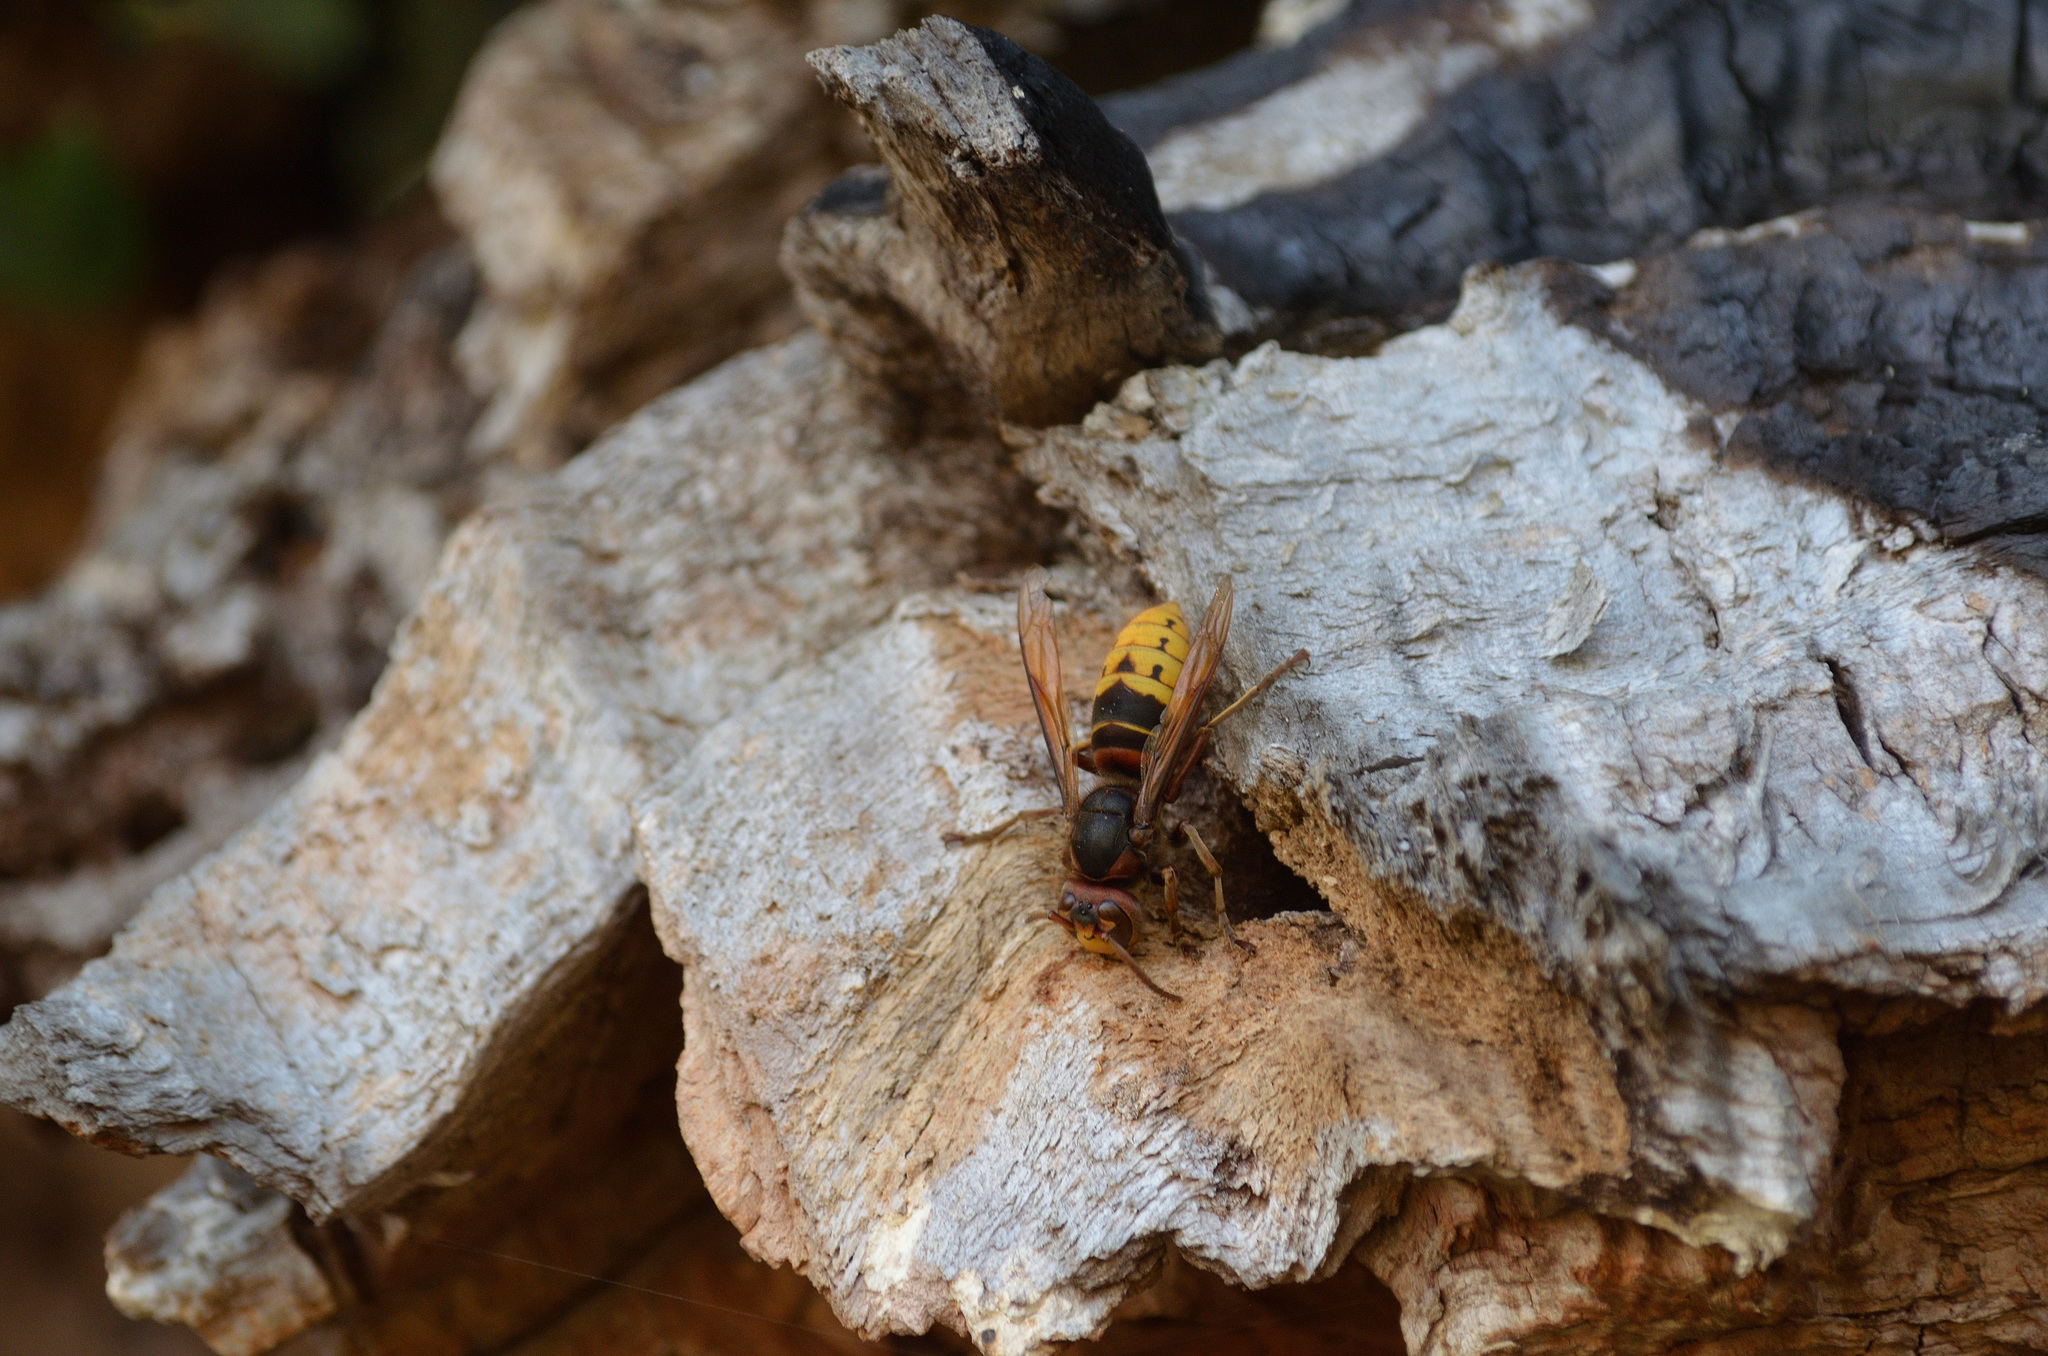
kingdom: Animalia
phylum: Arthropoda
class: Insecta
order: Hymenoptera
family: Vespidae
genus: Vespa
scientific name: Vespa crabro
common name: Hornet
